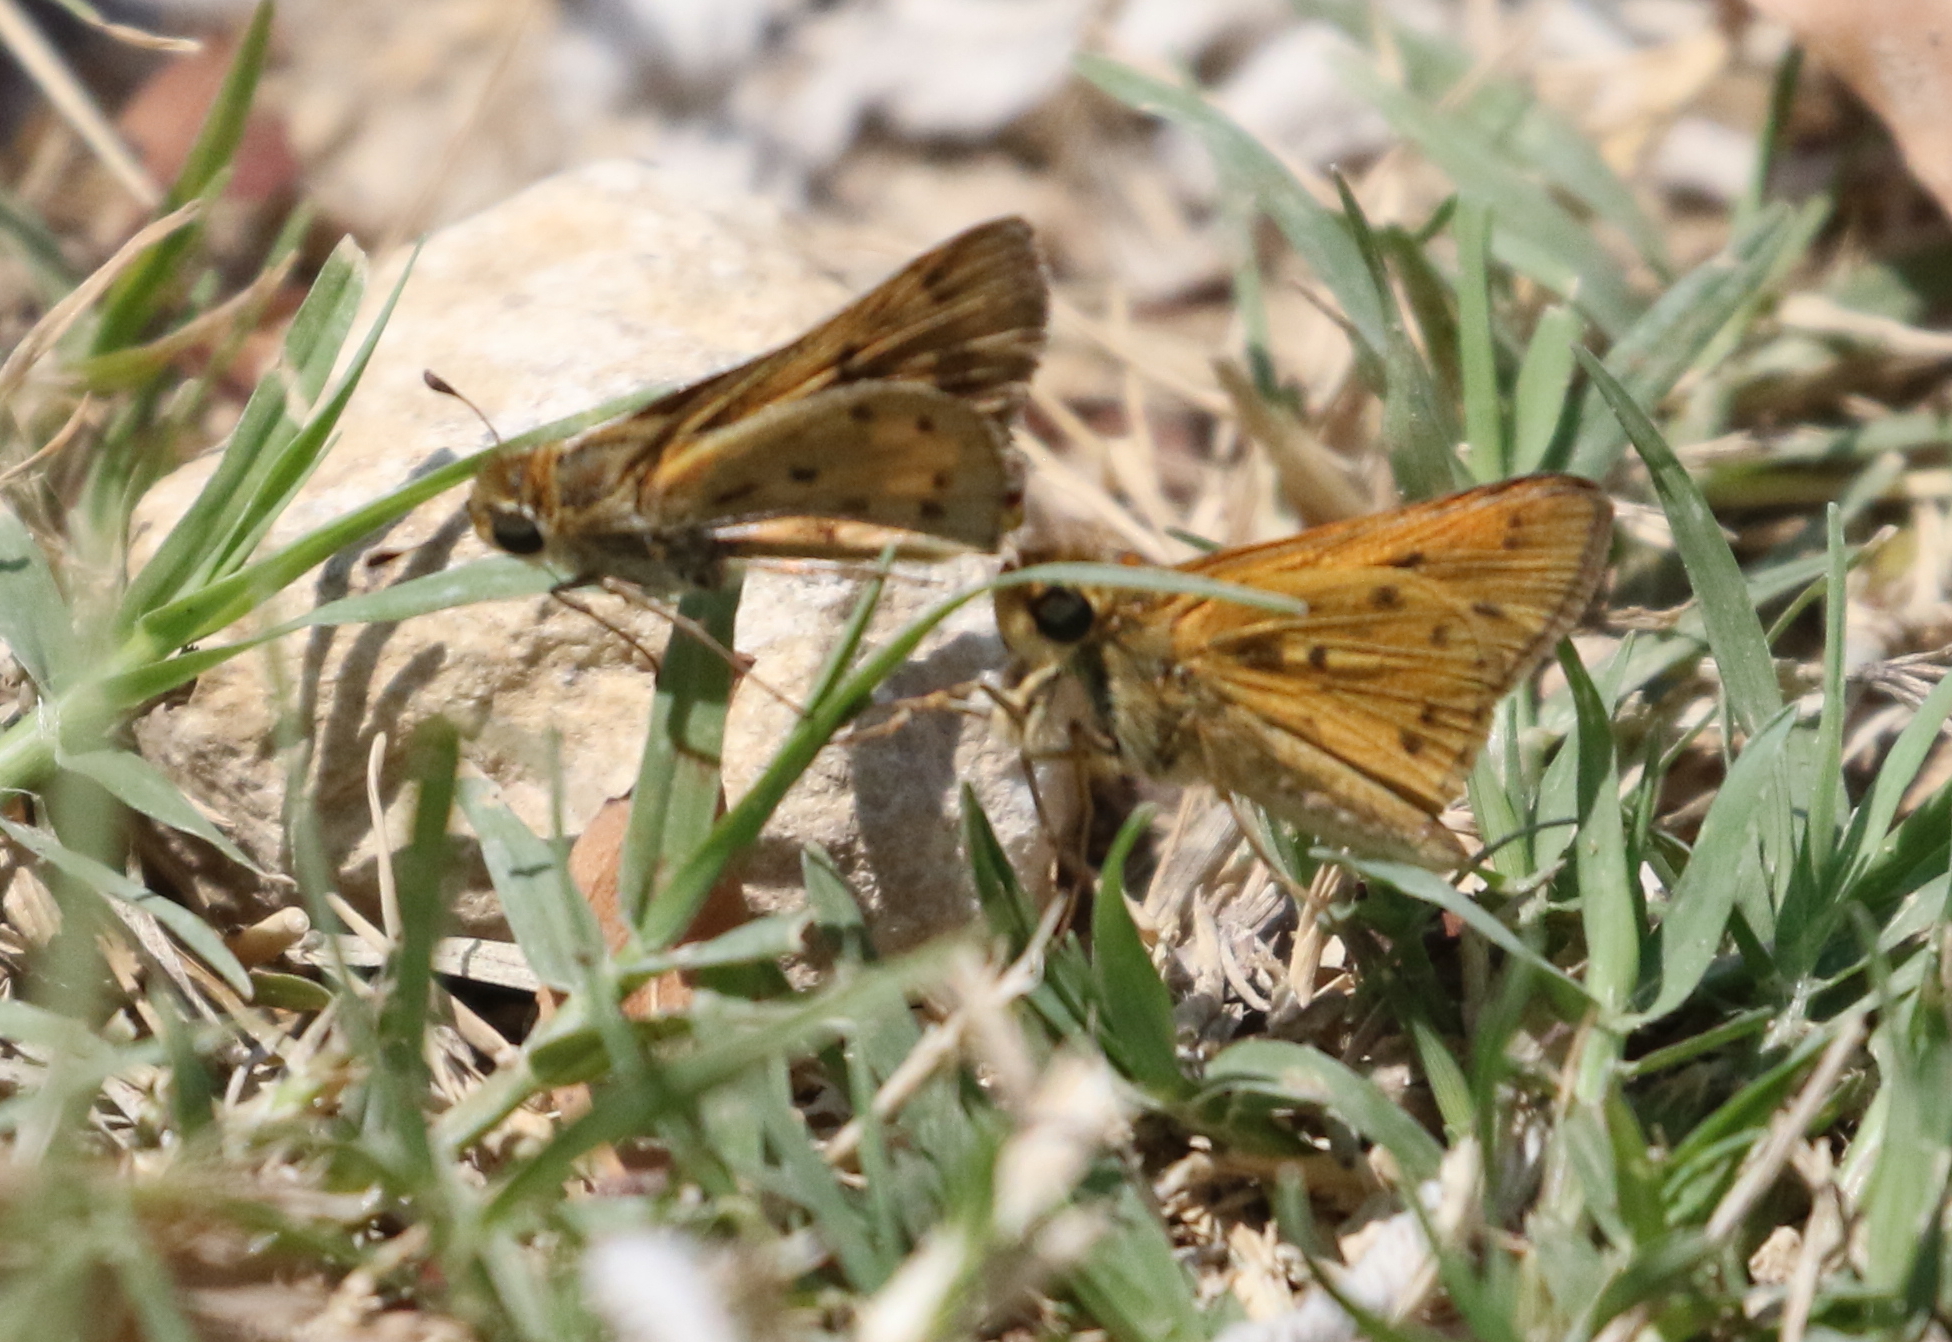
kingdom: Animalia
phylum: Arthropoda
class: Insecta
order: Lepidoptera
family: Hesperiidae
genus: Hylephila
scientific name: Hylephila phyleus
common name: Fiery skipper
